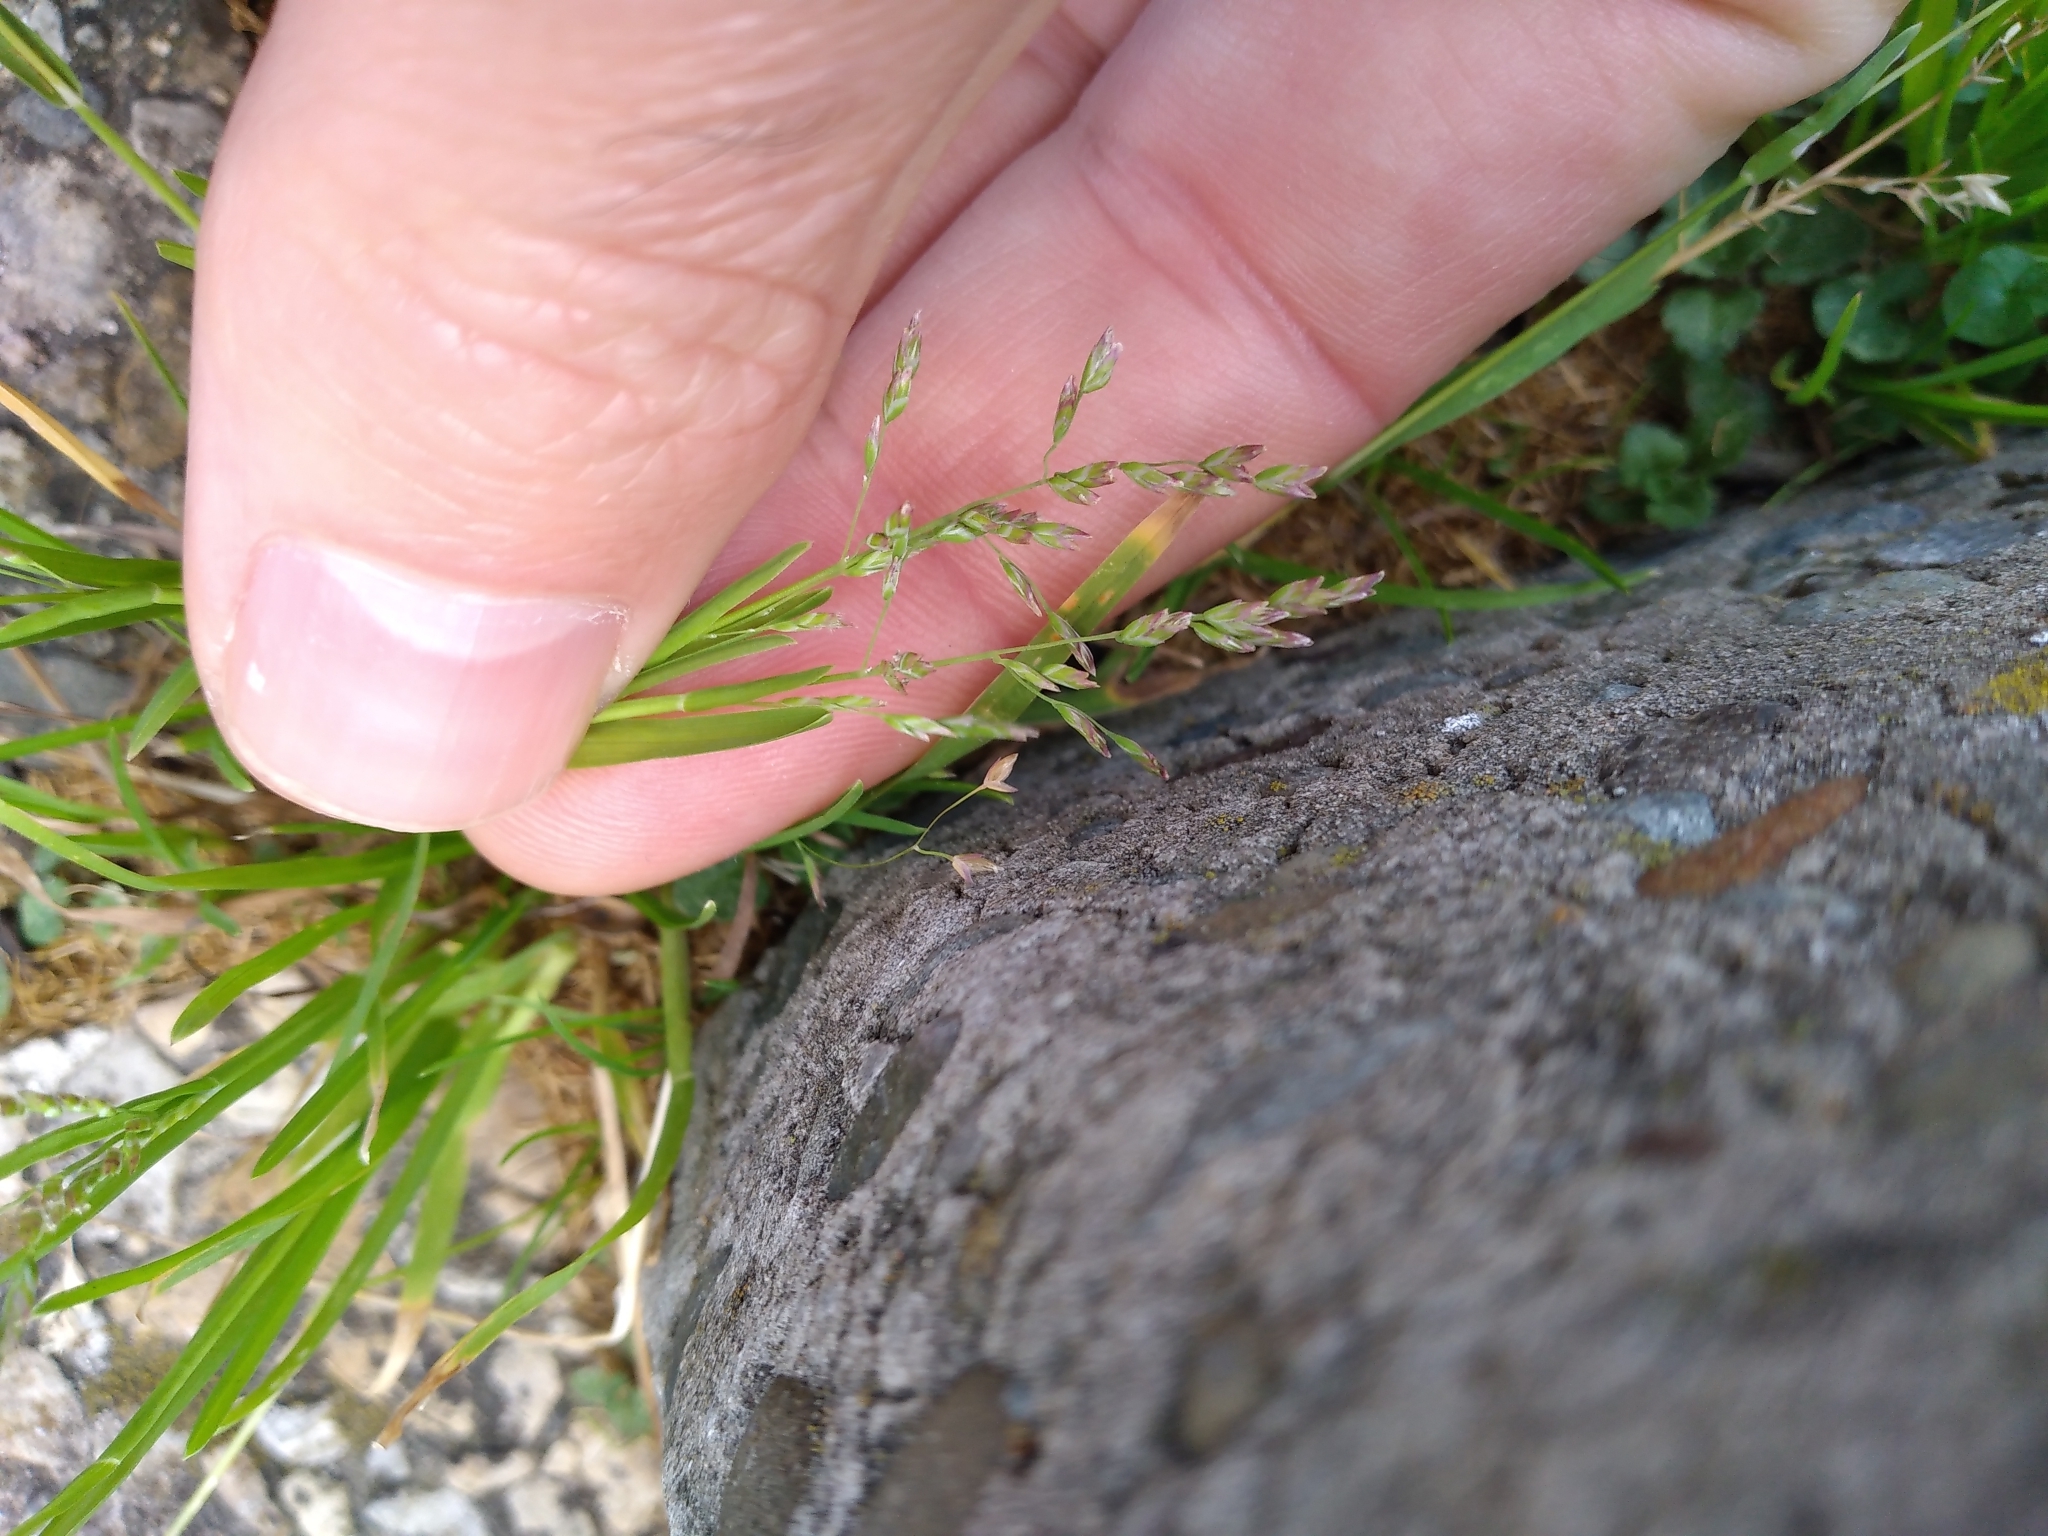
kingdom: Plantae
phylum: Tracheophyta
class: Liliopsida
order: Poales
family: Poaceae
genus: Poa
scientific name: Poa annua
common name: Annual bluegrass
